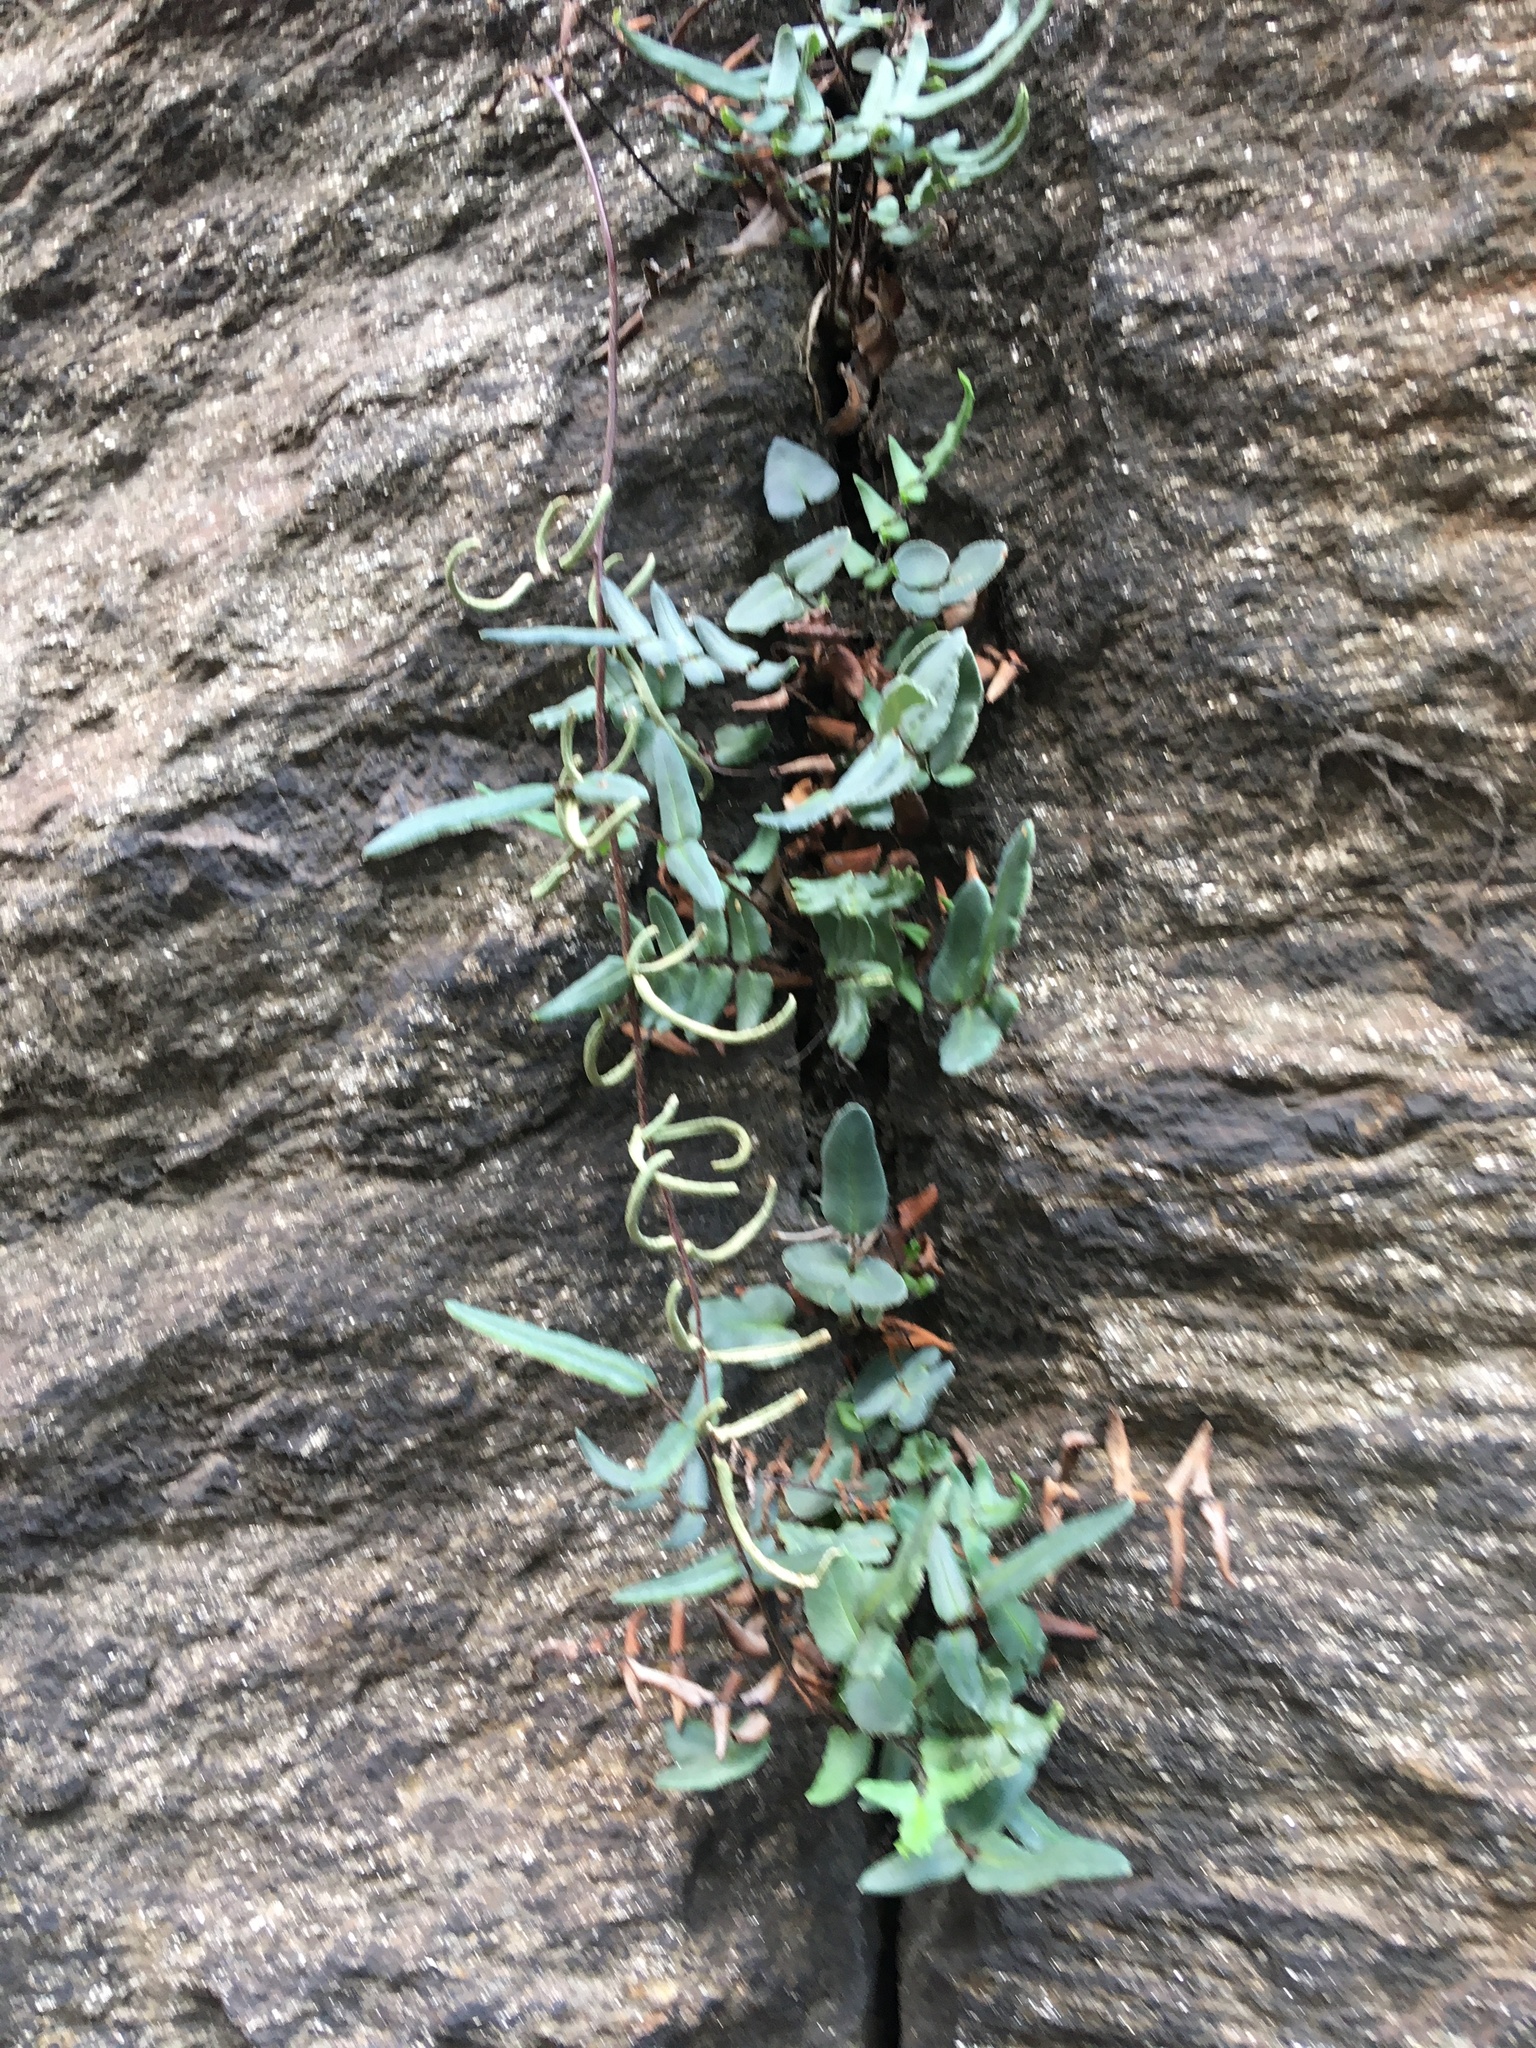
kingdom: Plantae
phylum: Tracheophyta
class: Polypodiopsida
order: Polypodiales
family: Pteridaceae
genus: Pellaea
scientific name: Pellaea atropurpurea
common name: Hairy cliffbrake
